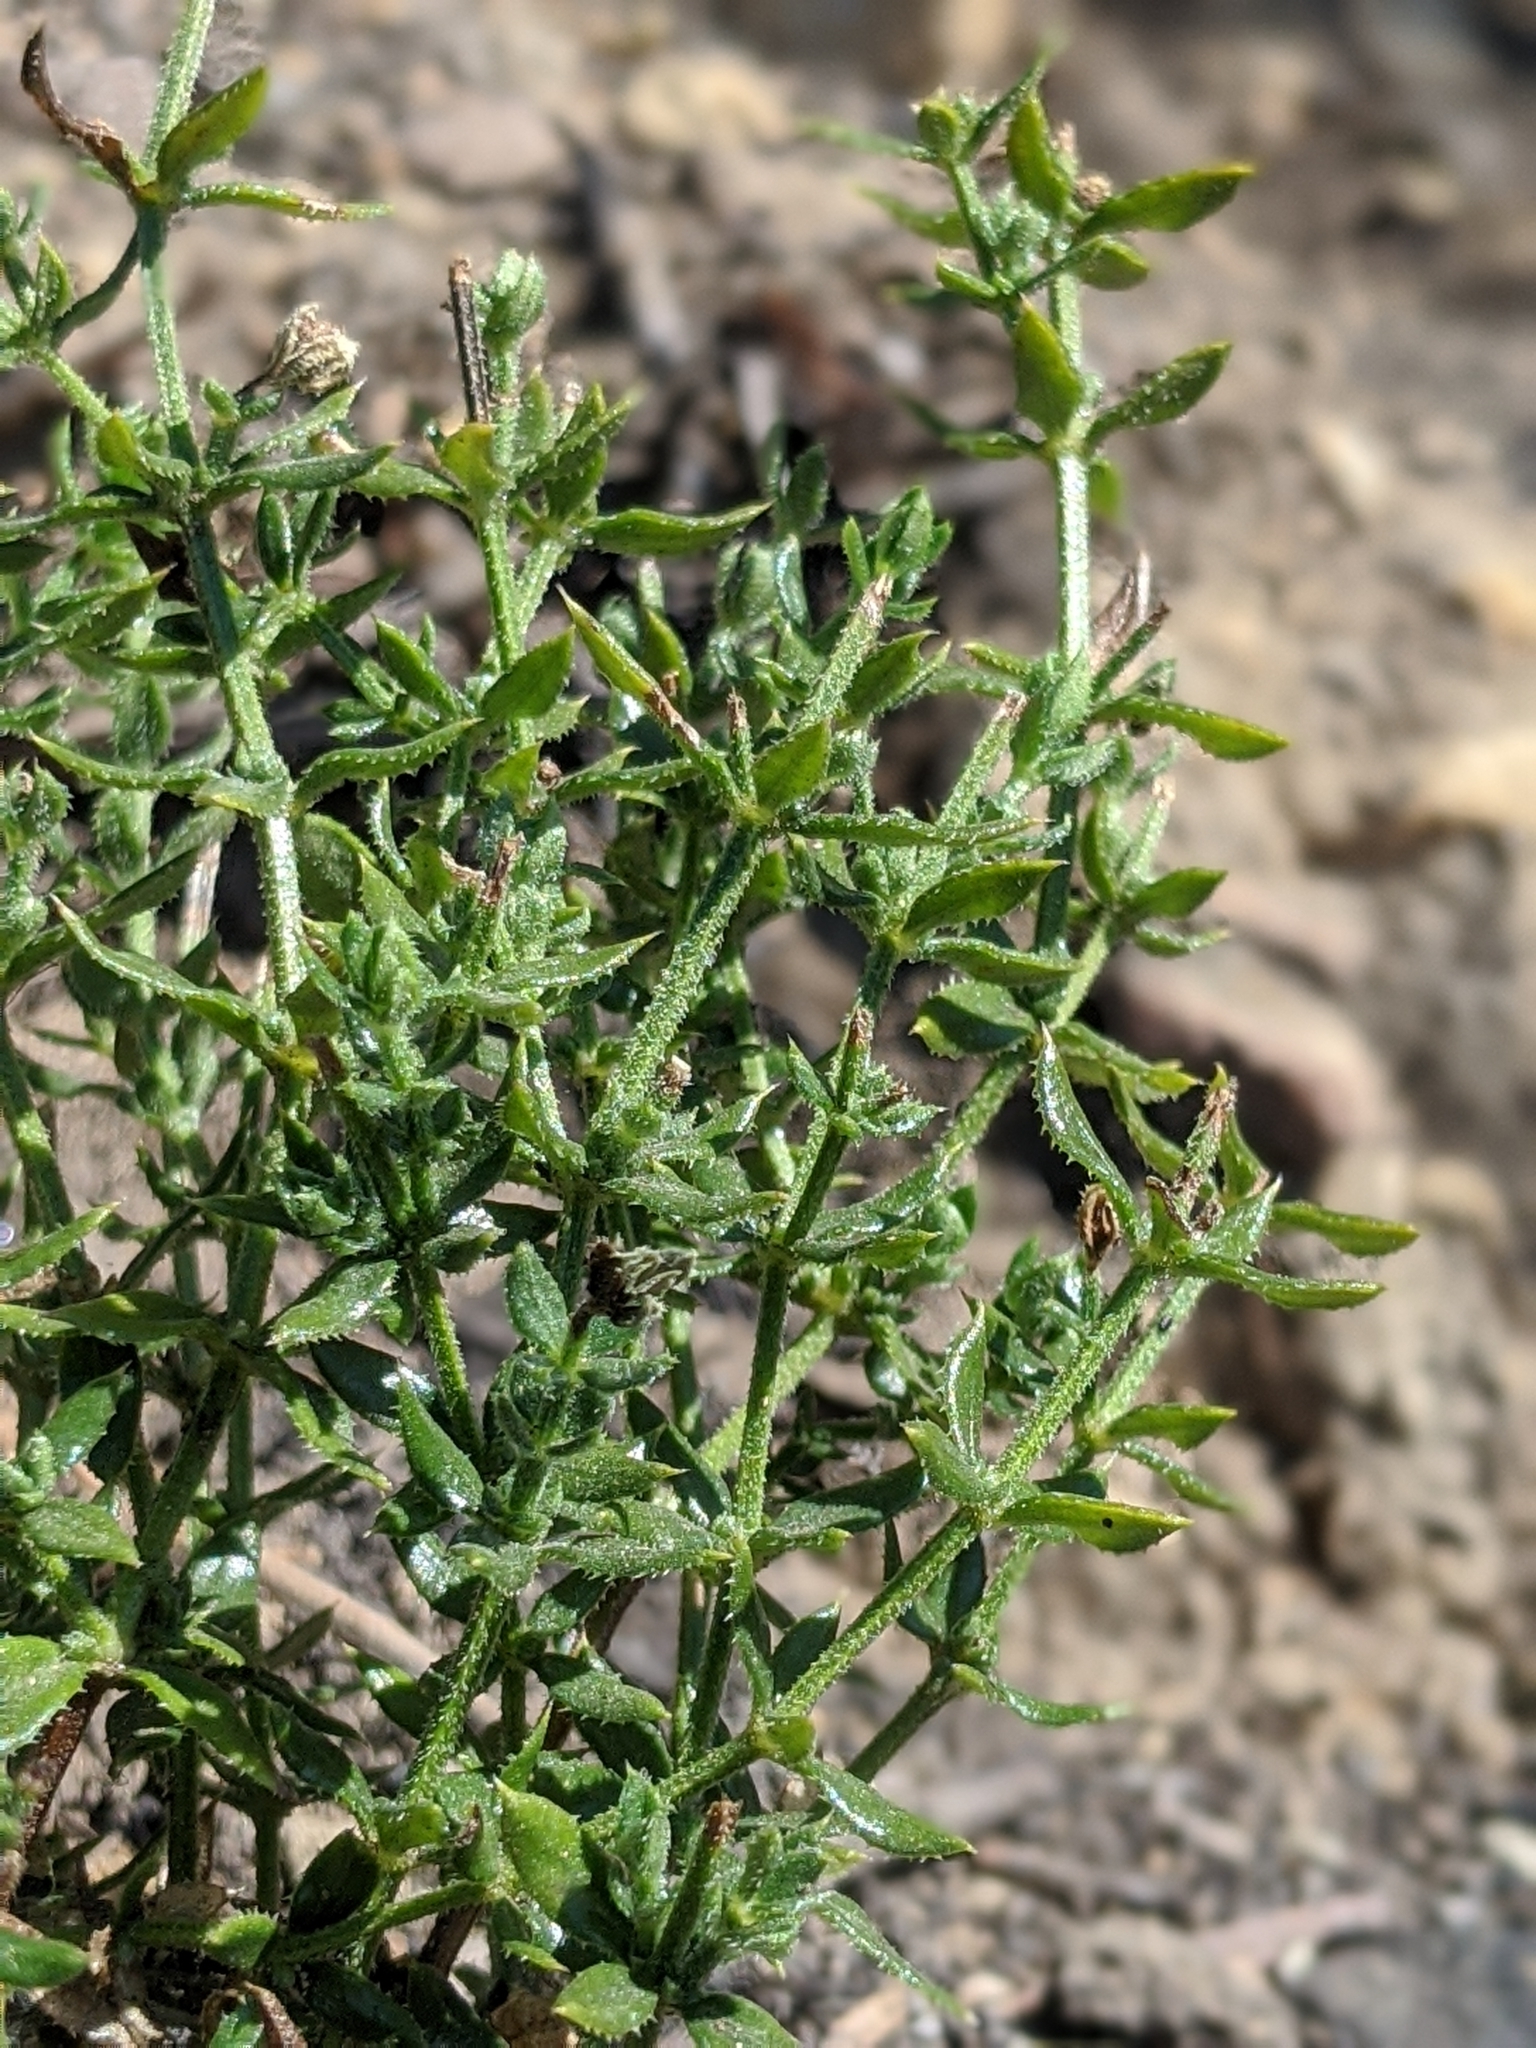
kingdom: Plantae
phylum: Tracheophyta
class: Magnoliopsida
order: Gentianales
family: Rubiaceae
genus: Galium
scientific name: Galium cliftonsmithii
